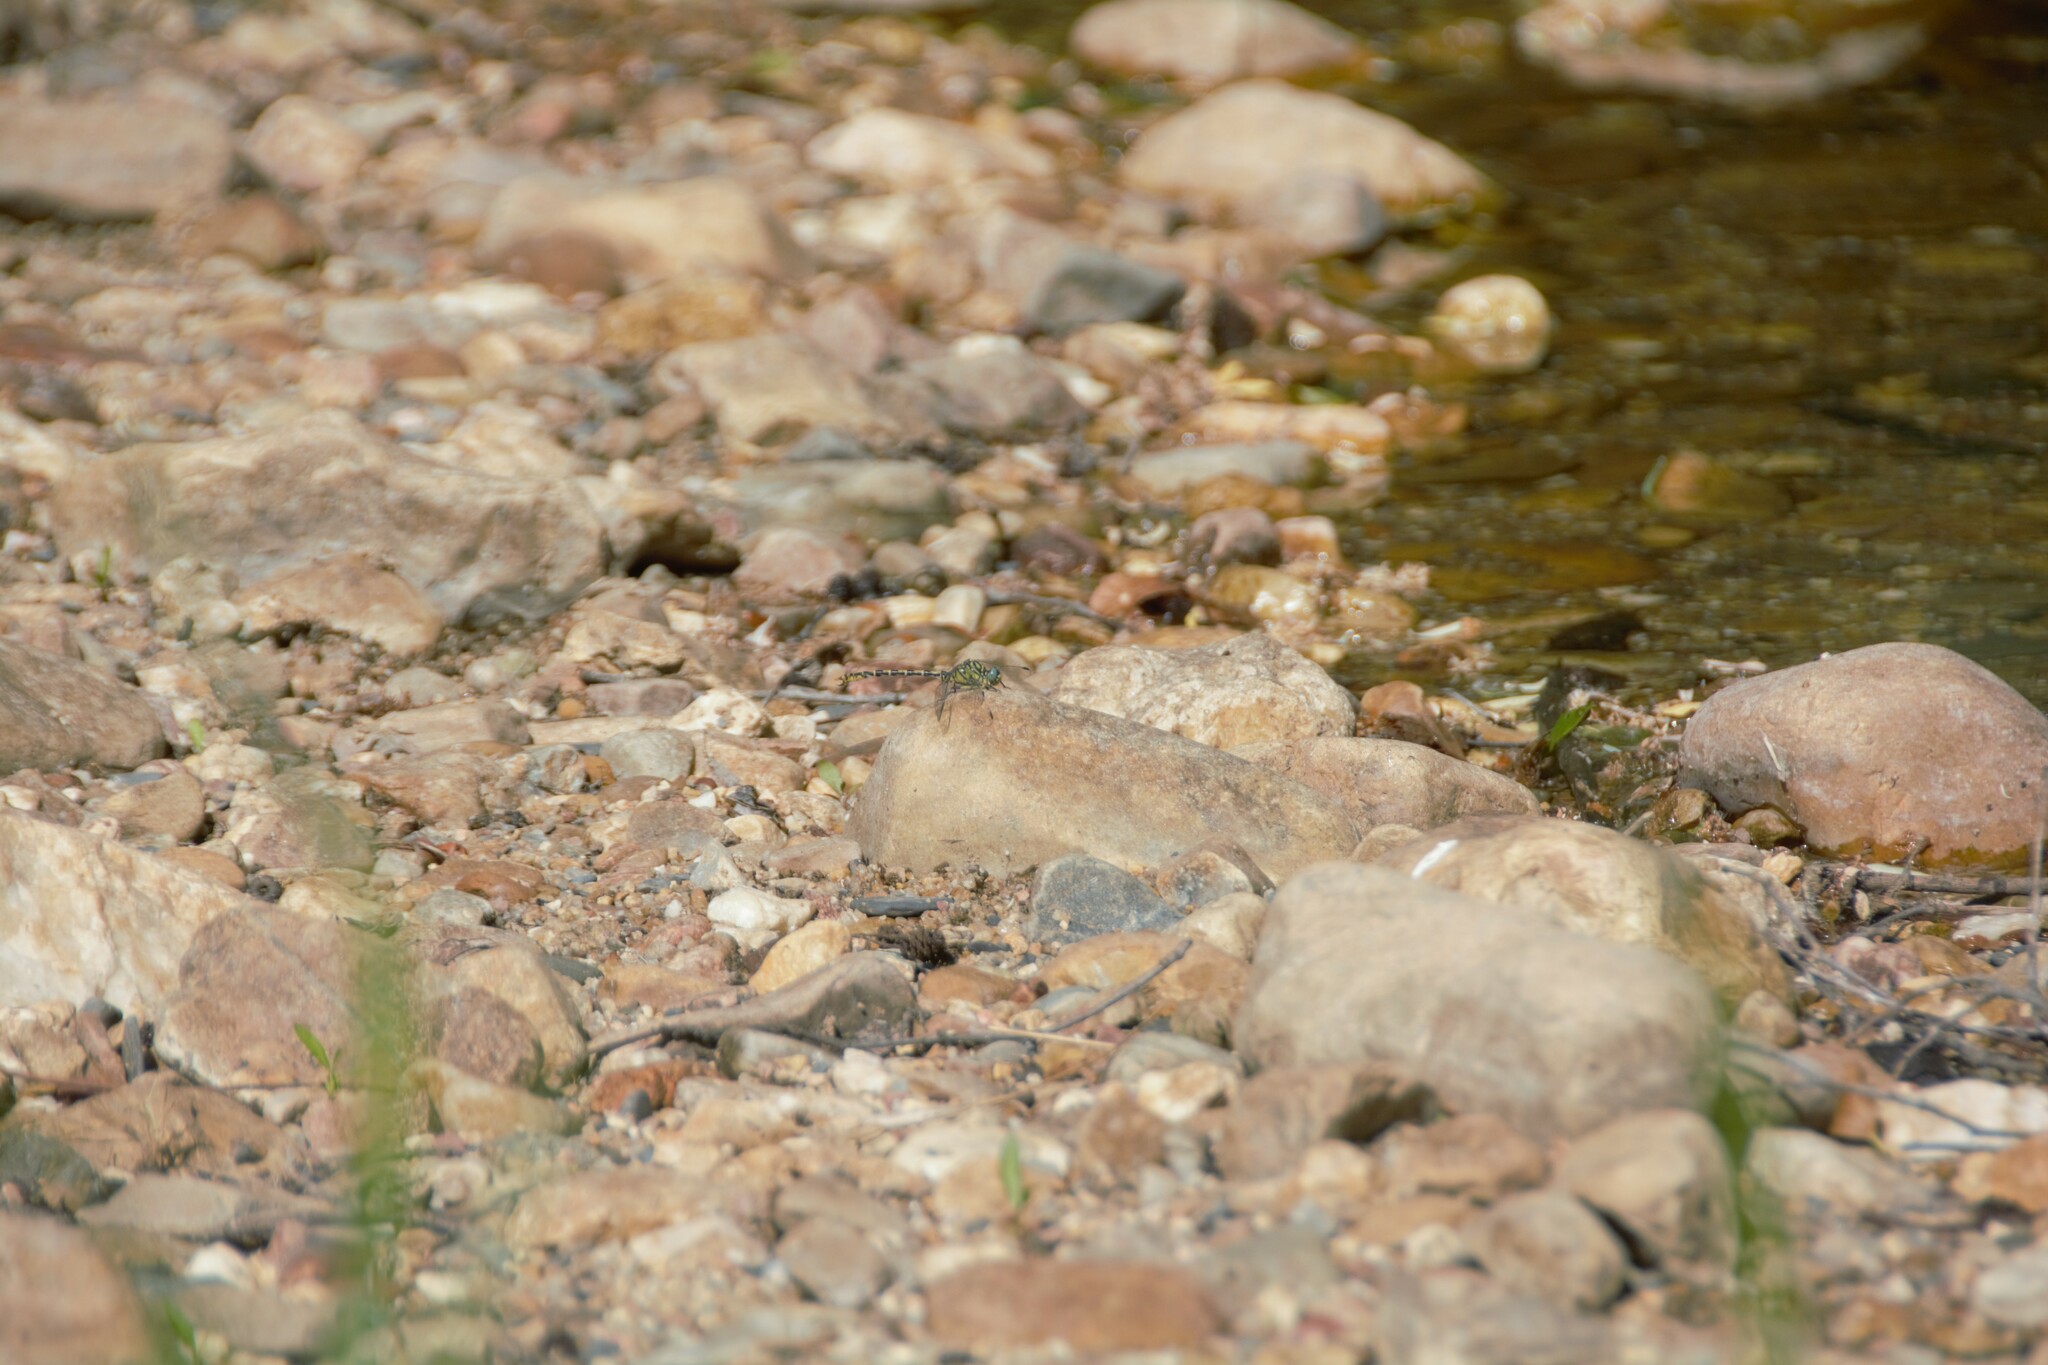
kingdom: Animalia
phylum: Arthropoda
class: Insecta
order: Odonata
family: Gomphidae
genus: Onychogomphus
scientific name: Onychogomphus forcipatus
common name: Small pincertail
